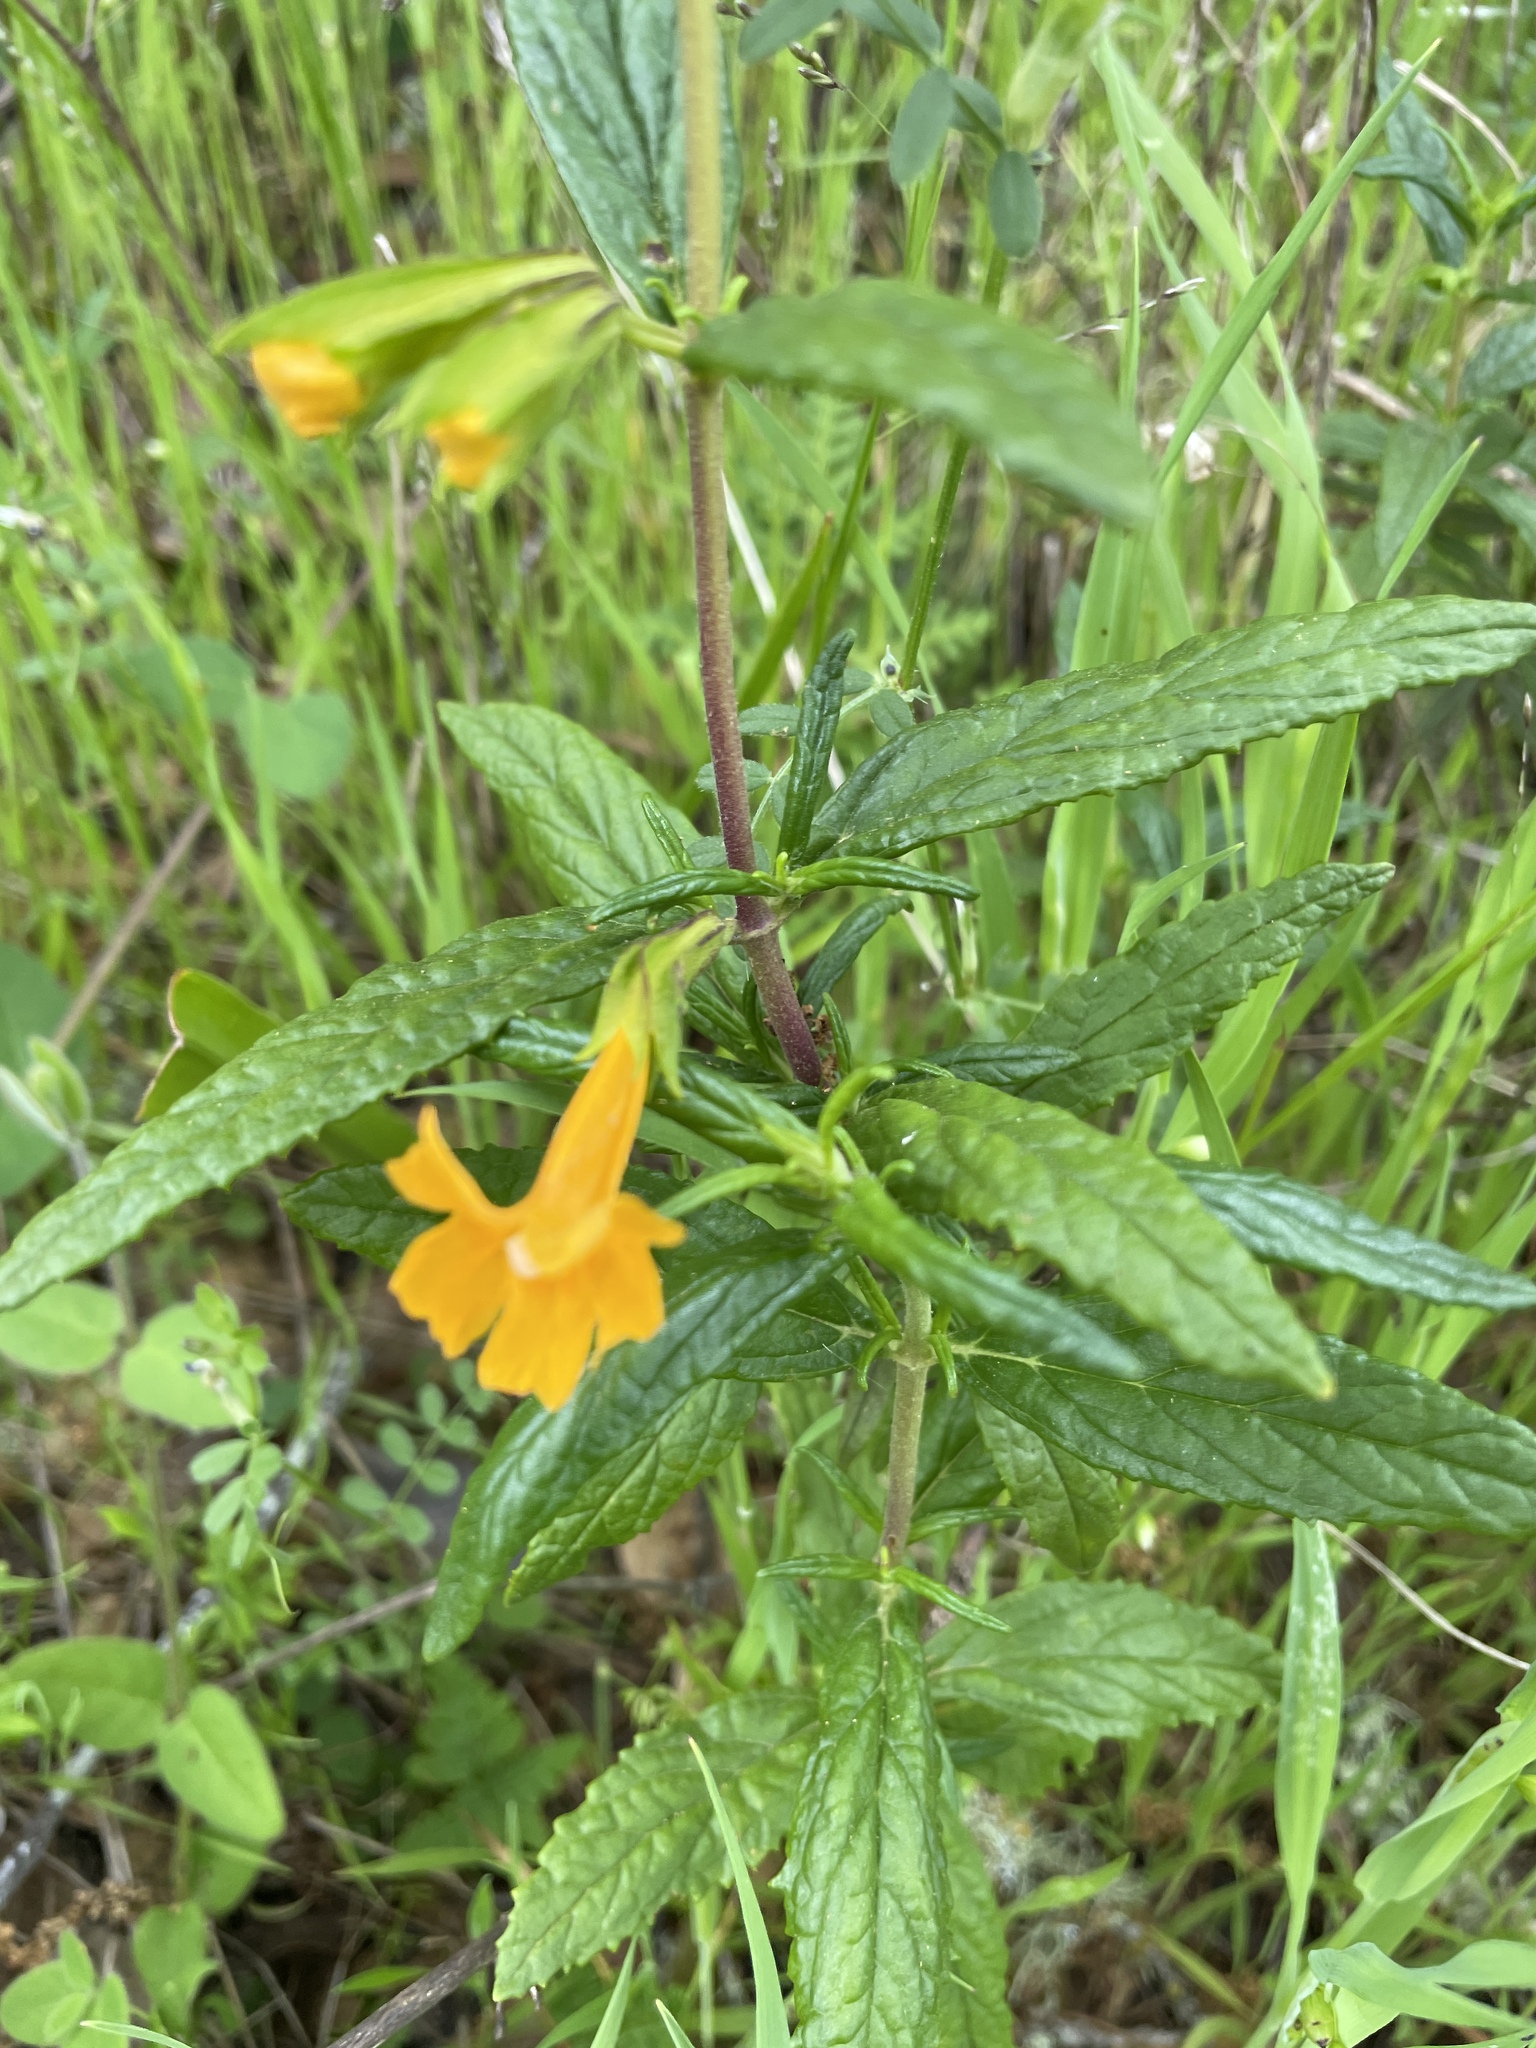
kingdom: Plantae
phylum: Tracheophyta
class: Magnoliopsida
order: Lamiales
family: Phrymaceae
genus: Diplacus
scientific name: Diplacus aurantiacus
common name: Bush monkey-flower
